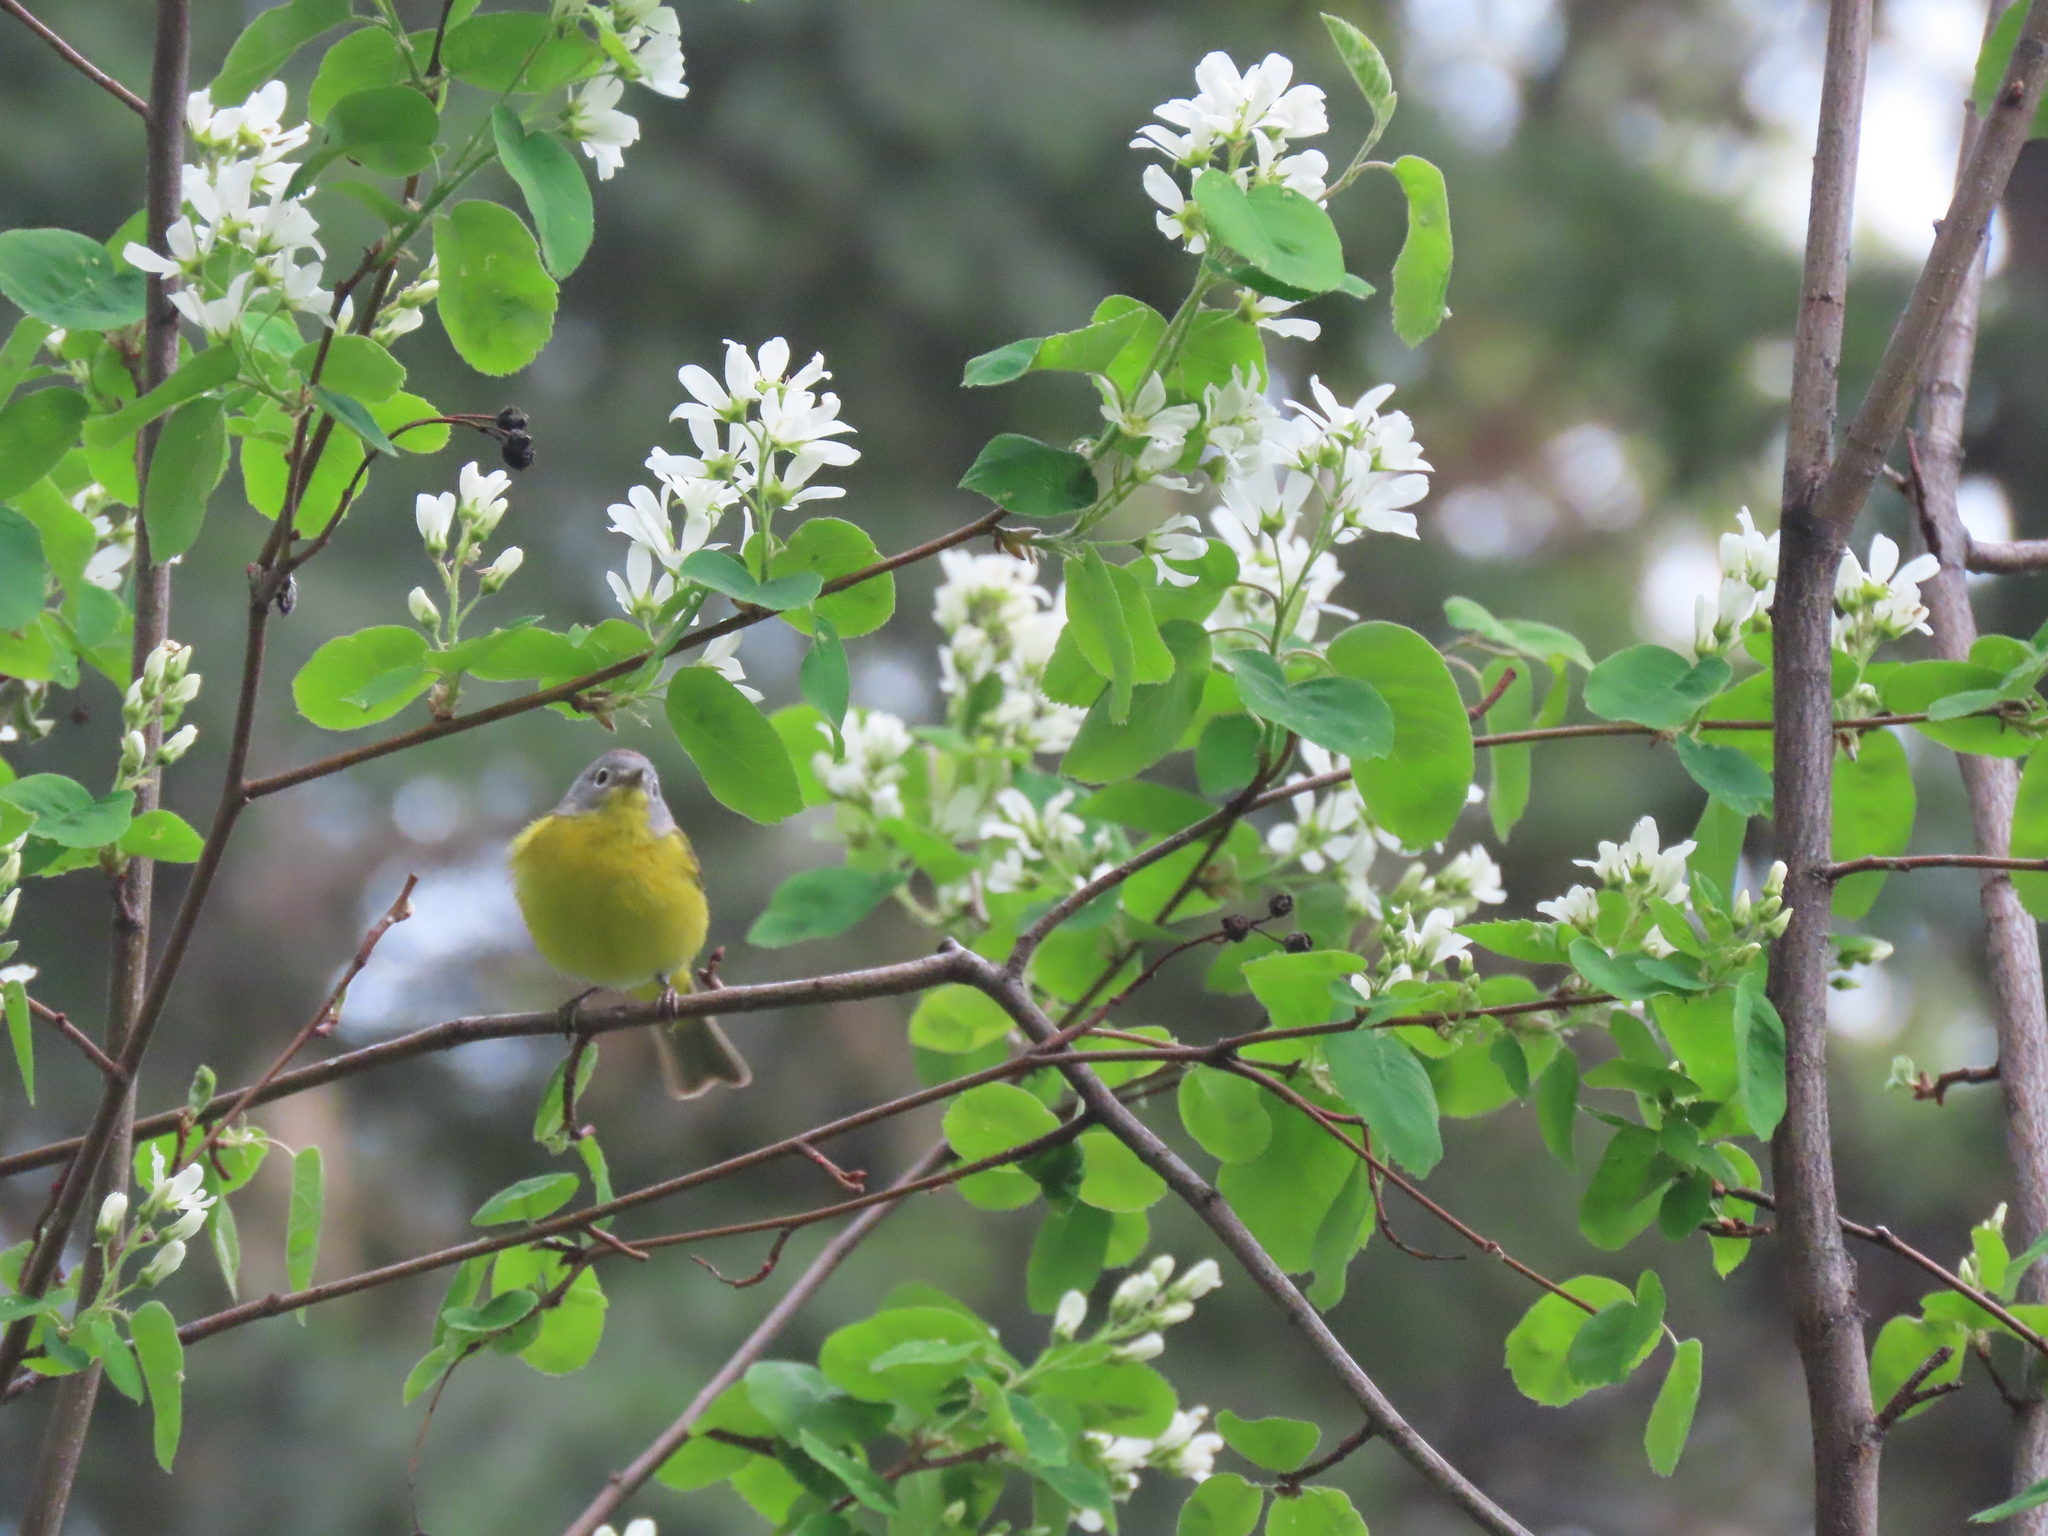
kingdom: Animalia
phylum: Chordata
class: Aves
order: Passeriformes
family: Parulidae
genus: Leiothlypis
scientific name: Leiothlypis ruficapilla
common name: Nashville warbler
